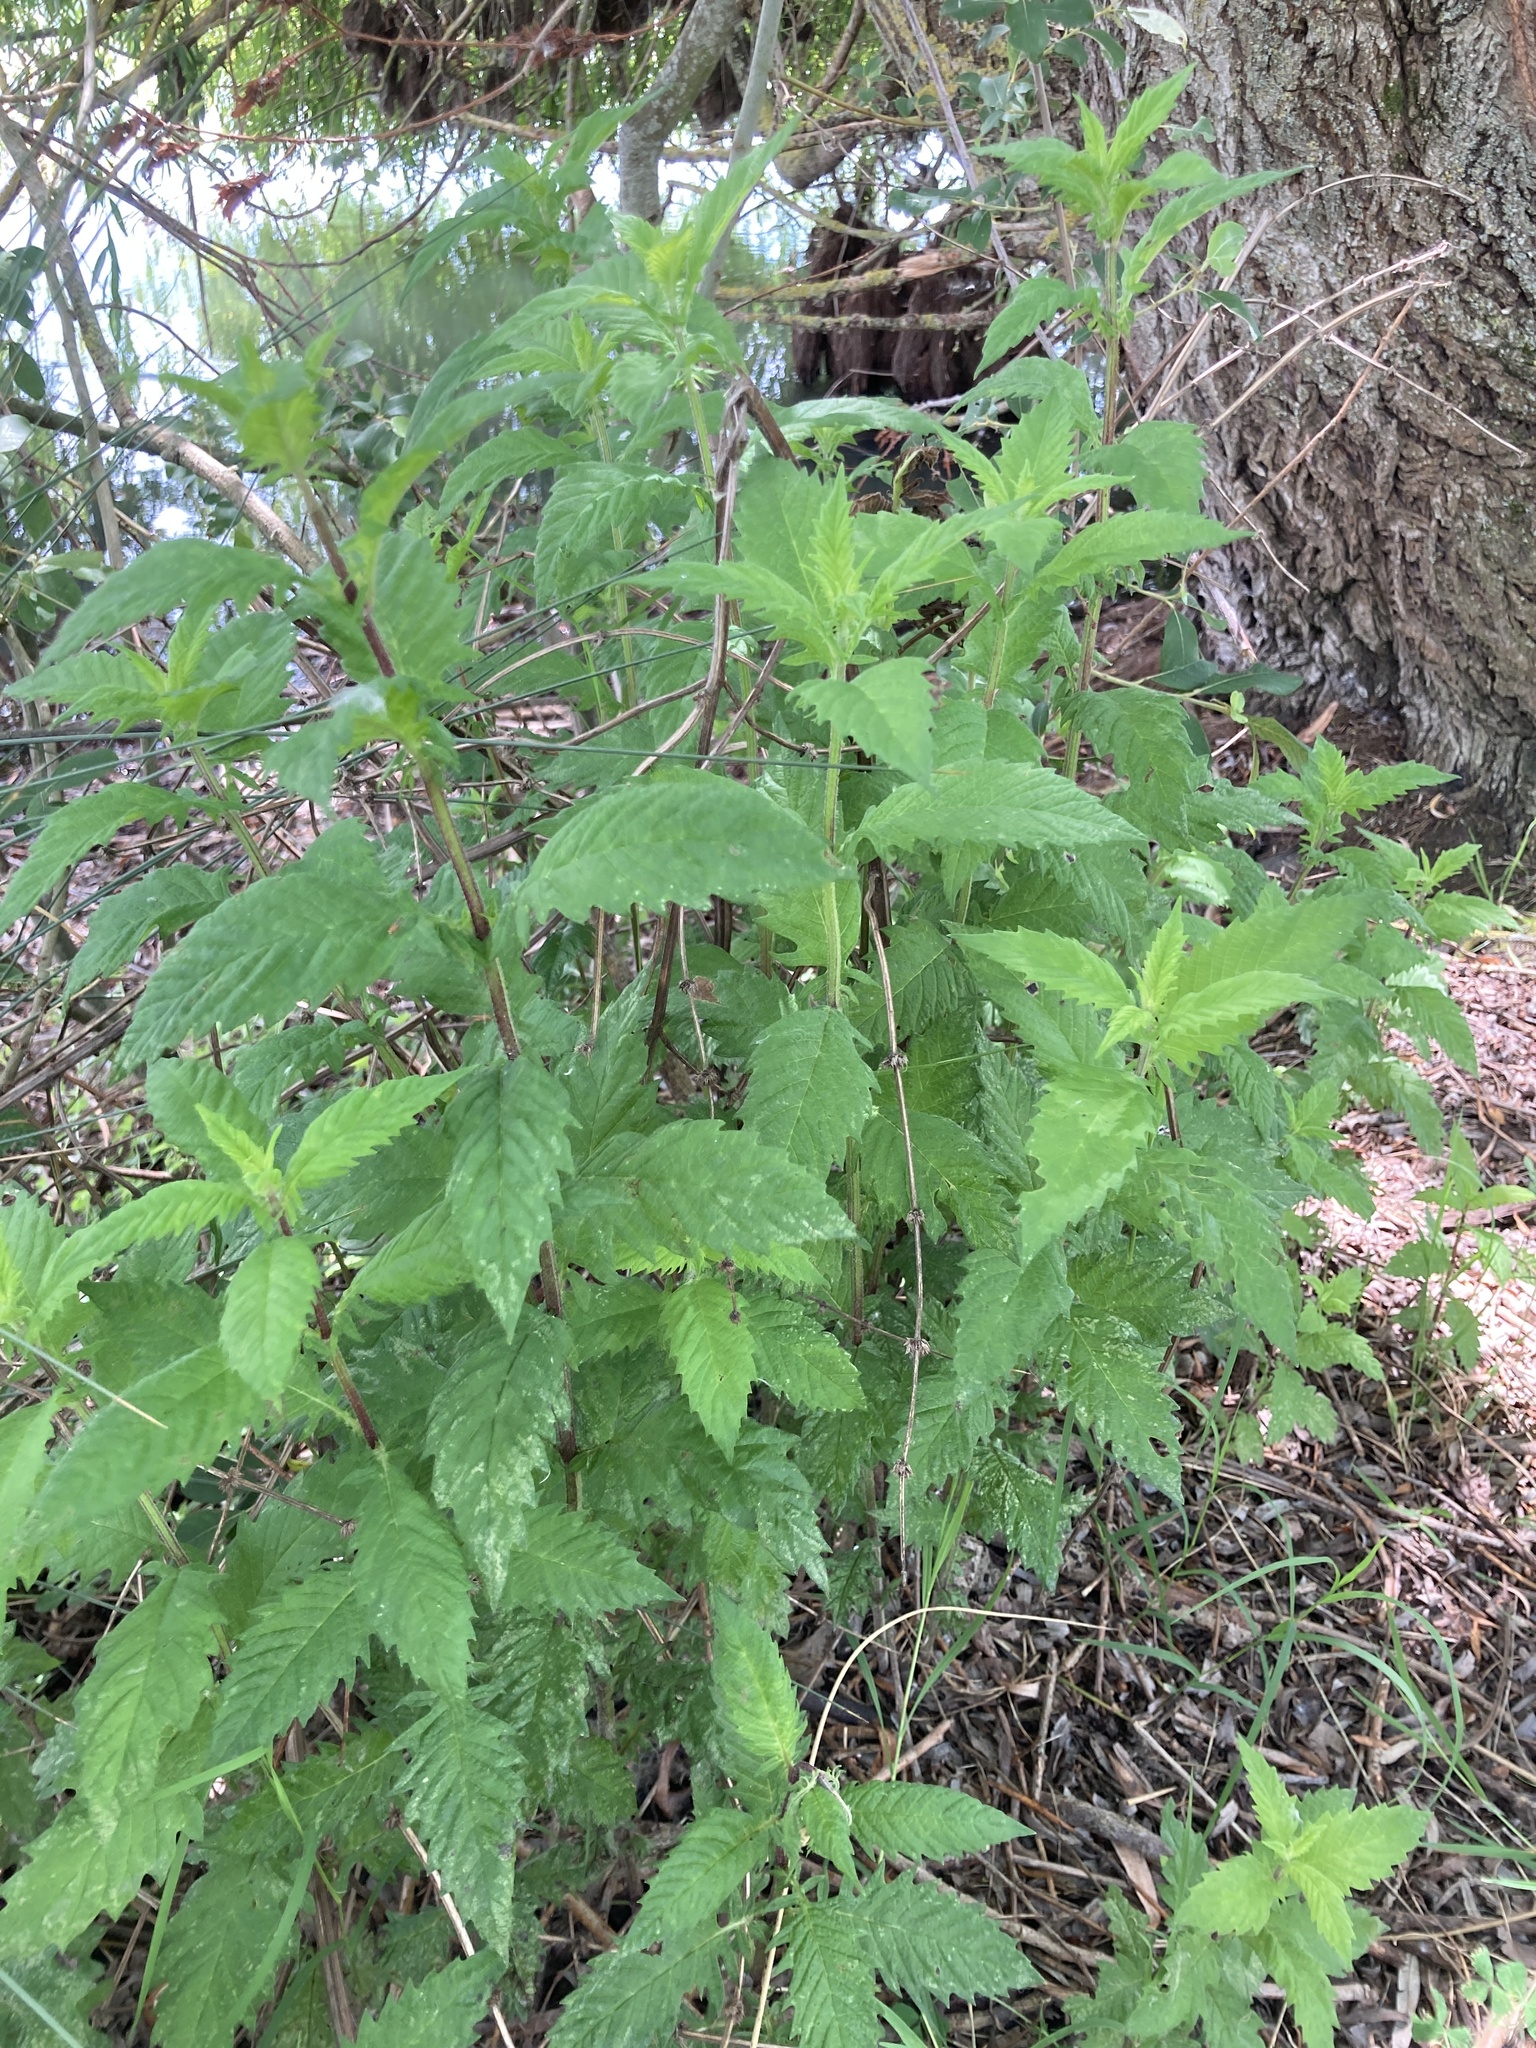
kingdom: Plantae
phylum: Tracheophyta
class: Magnoliopsida
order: Lamiales
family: Lamiaceae
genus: Lycopus
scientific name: Lycopus europaeus
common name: European bugleweed
